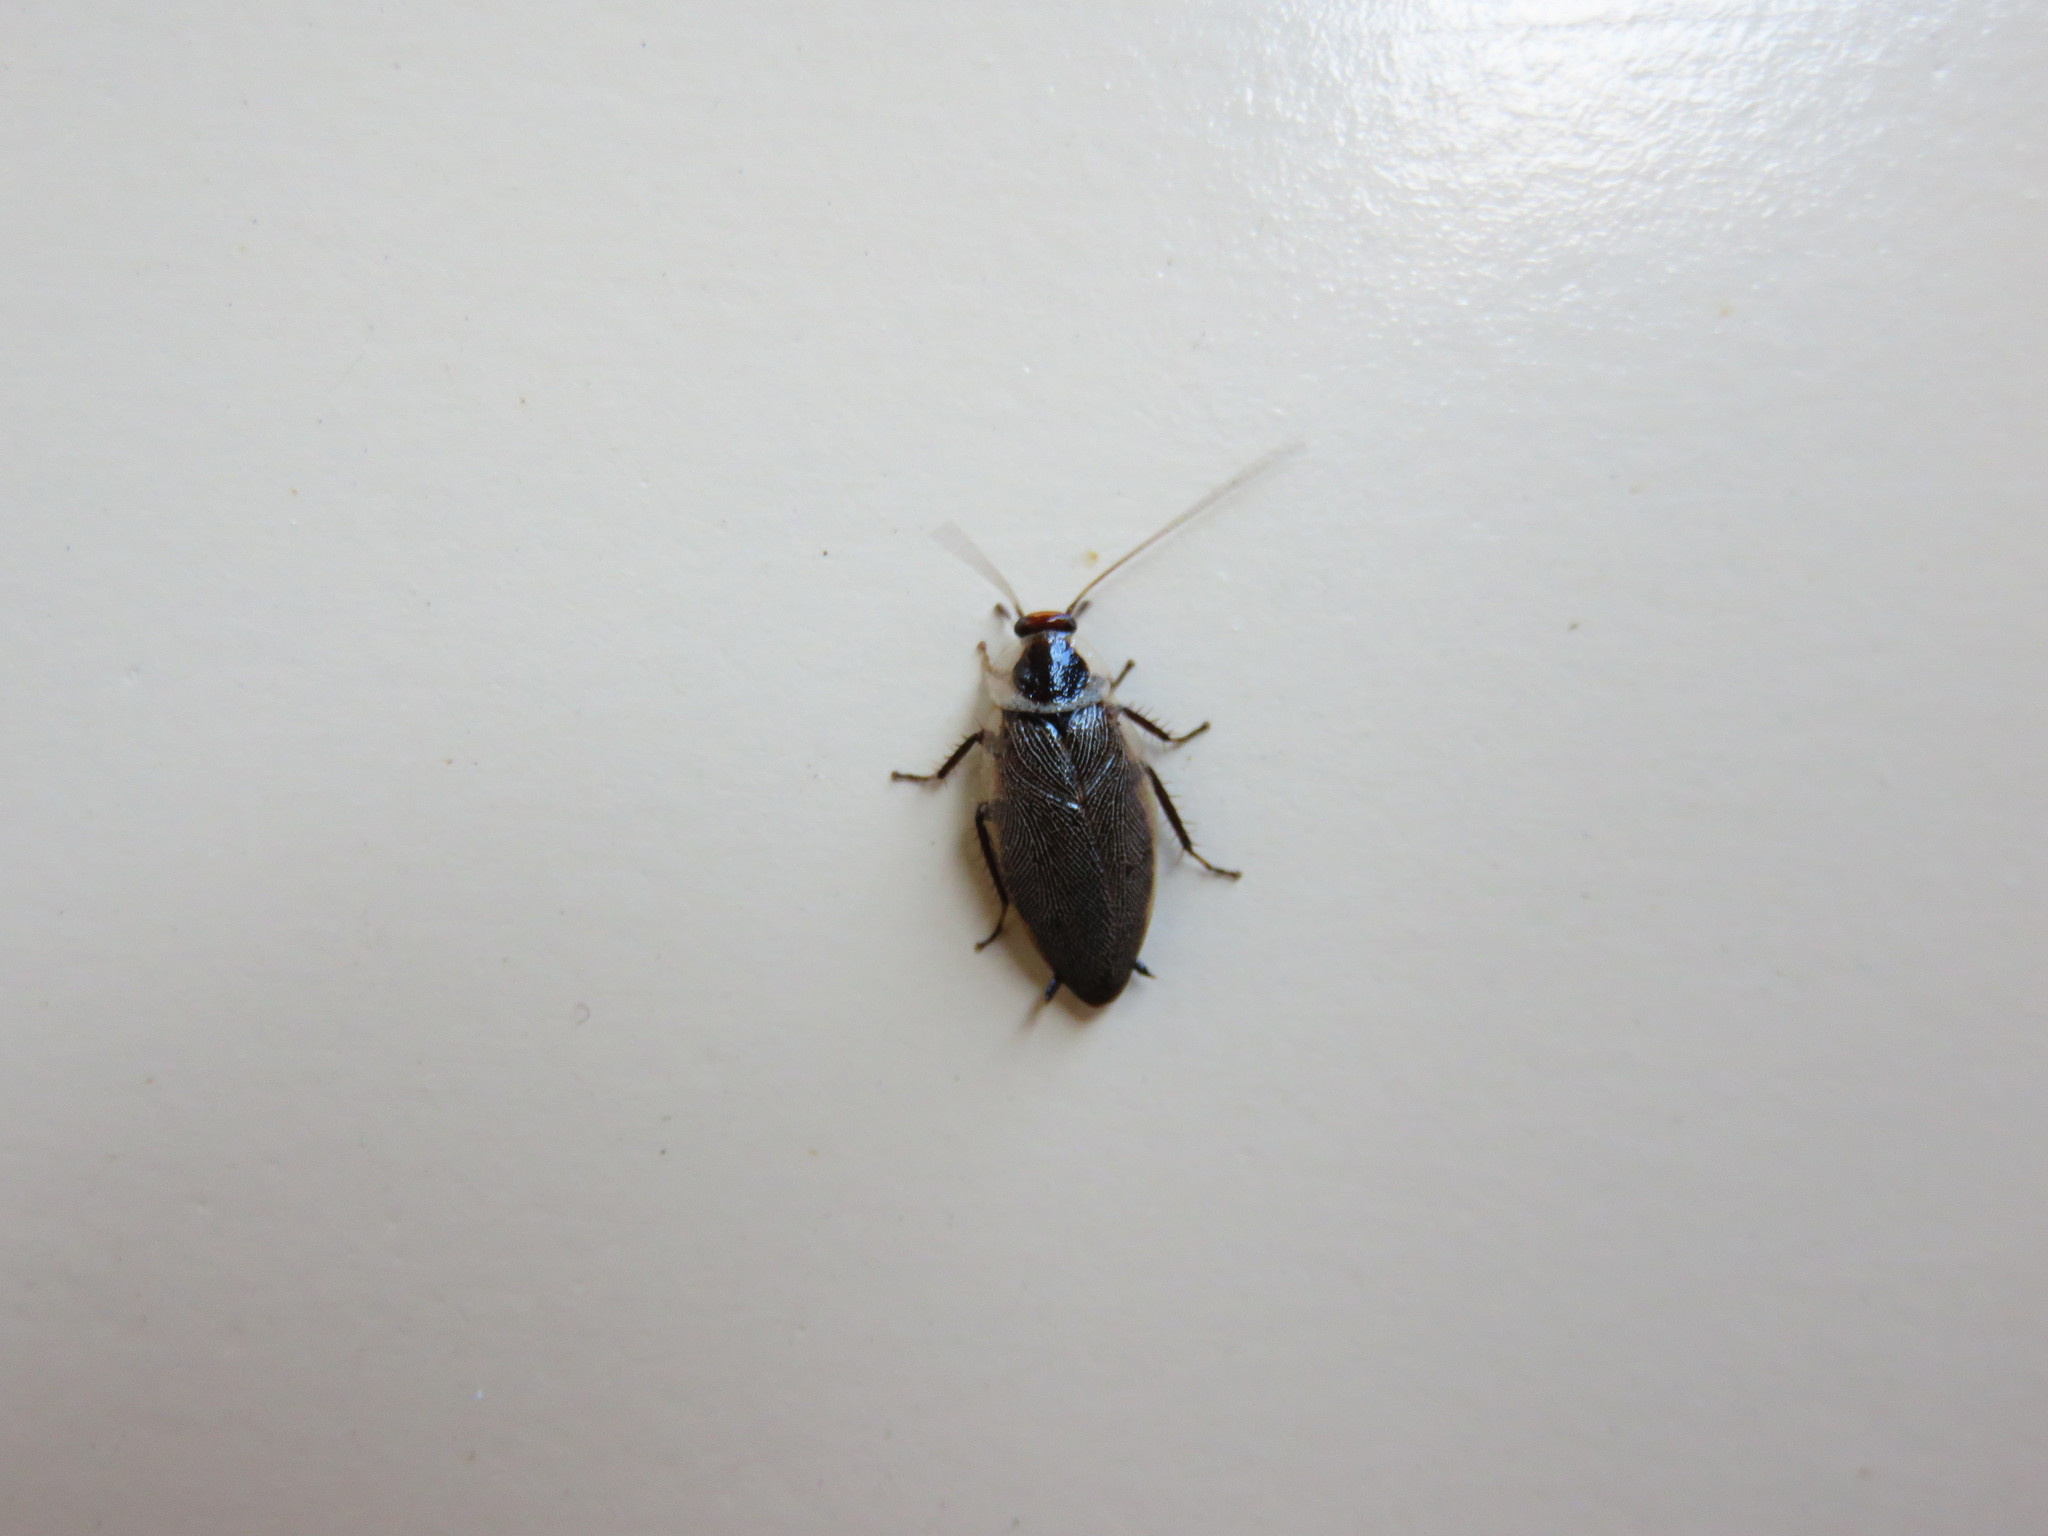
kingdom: Animalia
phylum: Arthropoda
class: Insecta
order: Blattodea
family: Ectobiidae
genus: Sorineuchora
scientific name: Sorineuchora nigra
